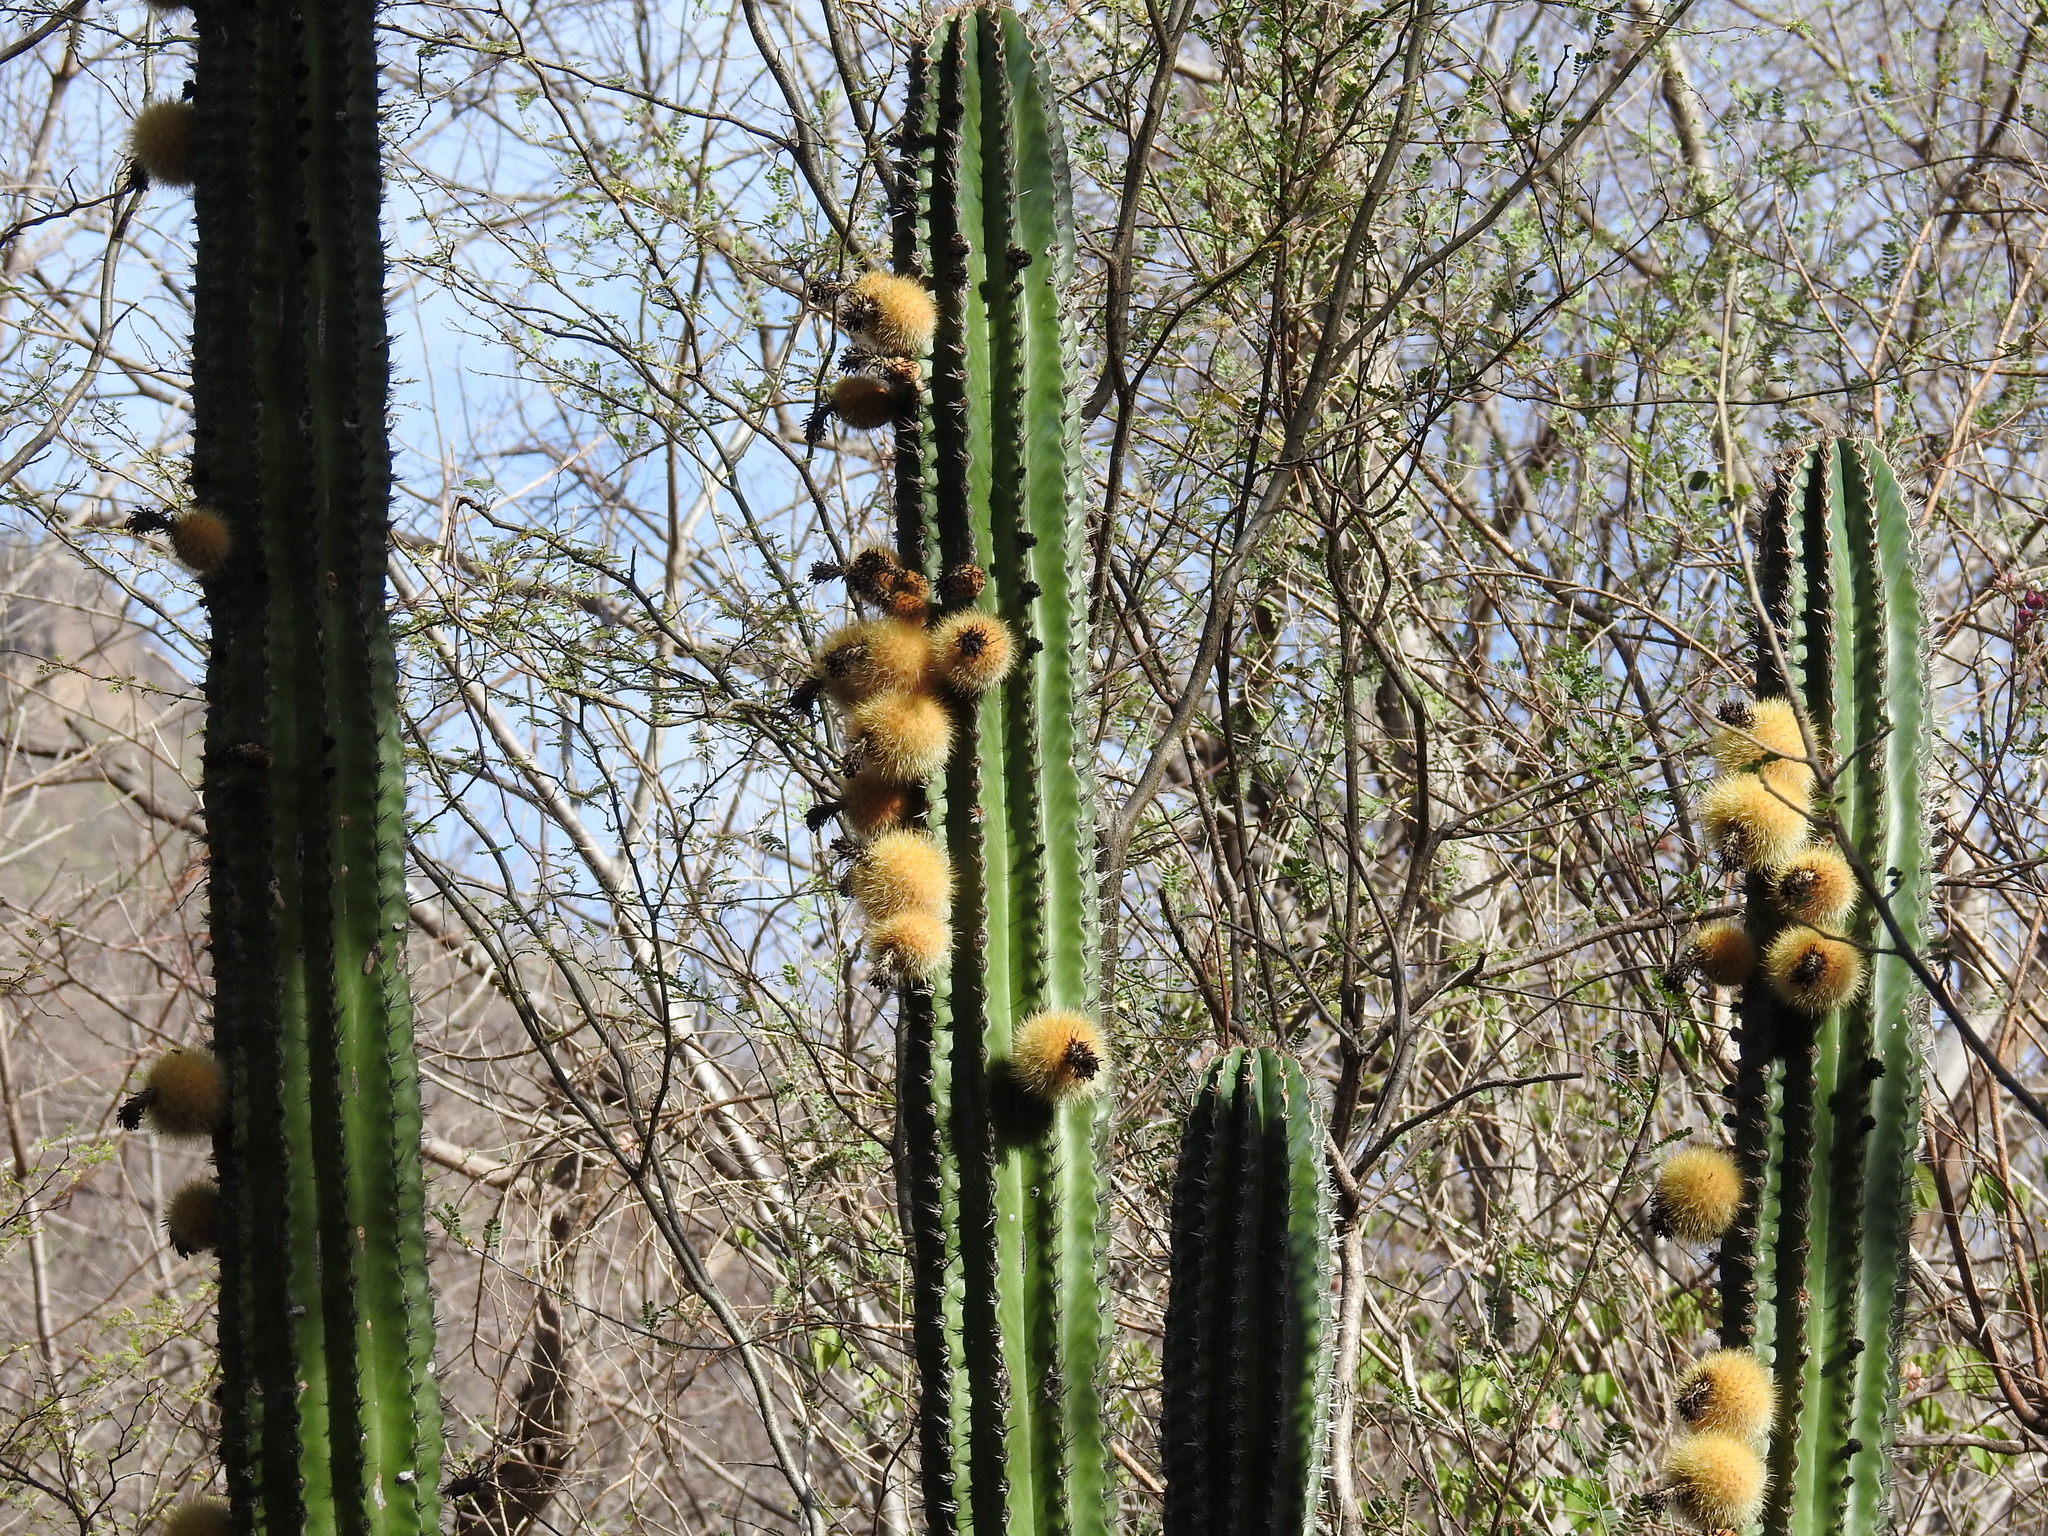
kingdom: Plantae
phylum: Tracheophyta
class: Magnoliopsida
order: Caryophyllales
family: Cactaceae
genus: Pachycereus
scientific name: Pachycereus pecten-aboriginum
